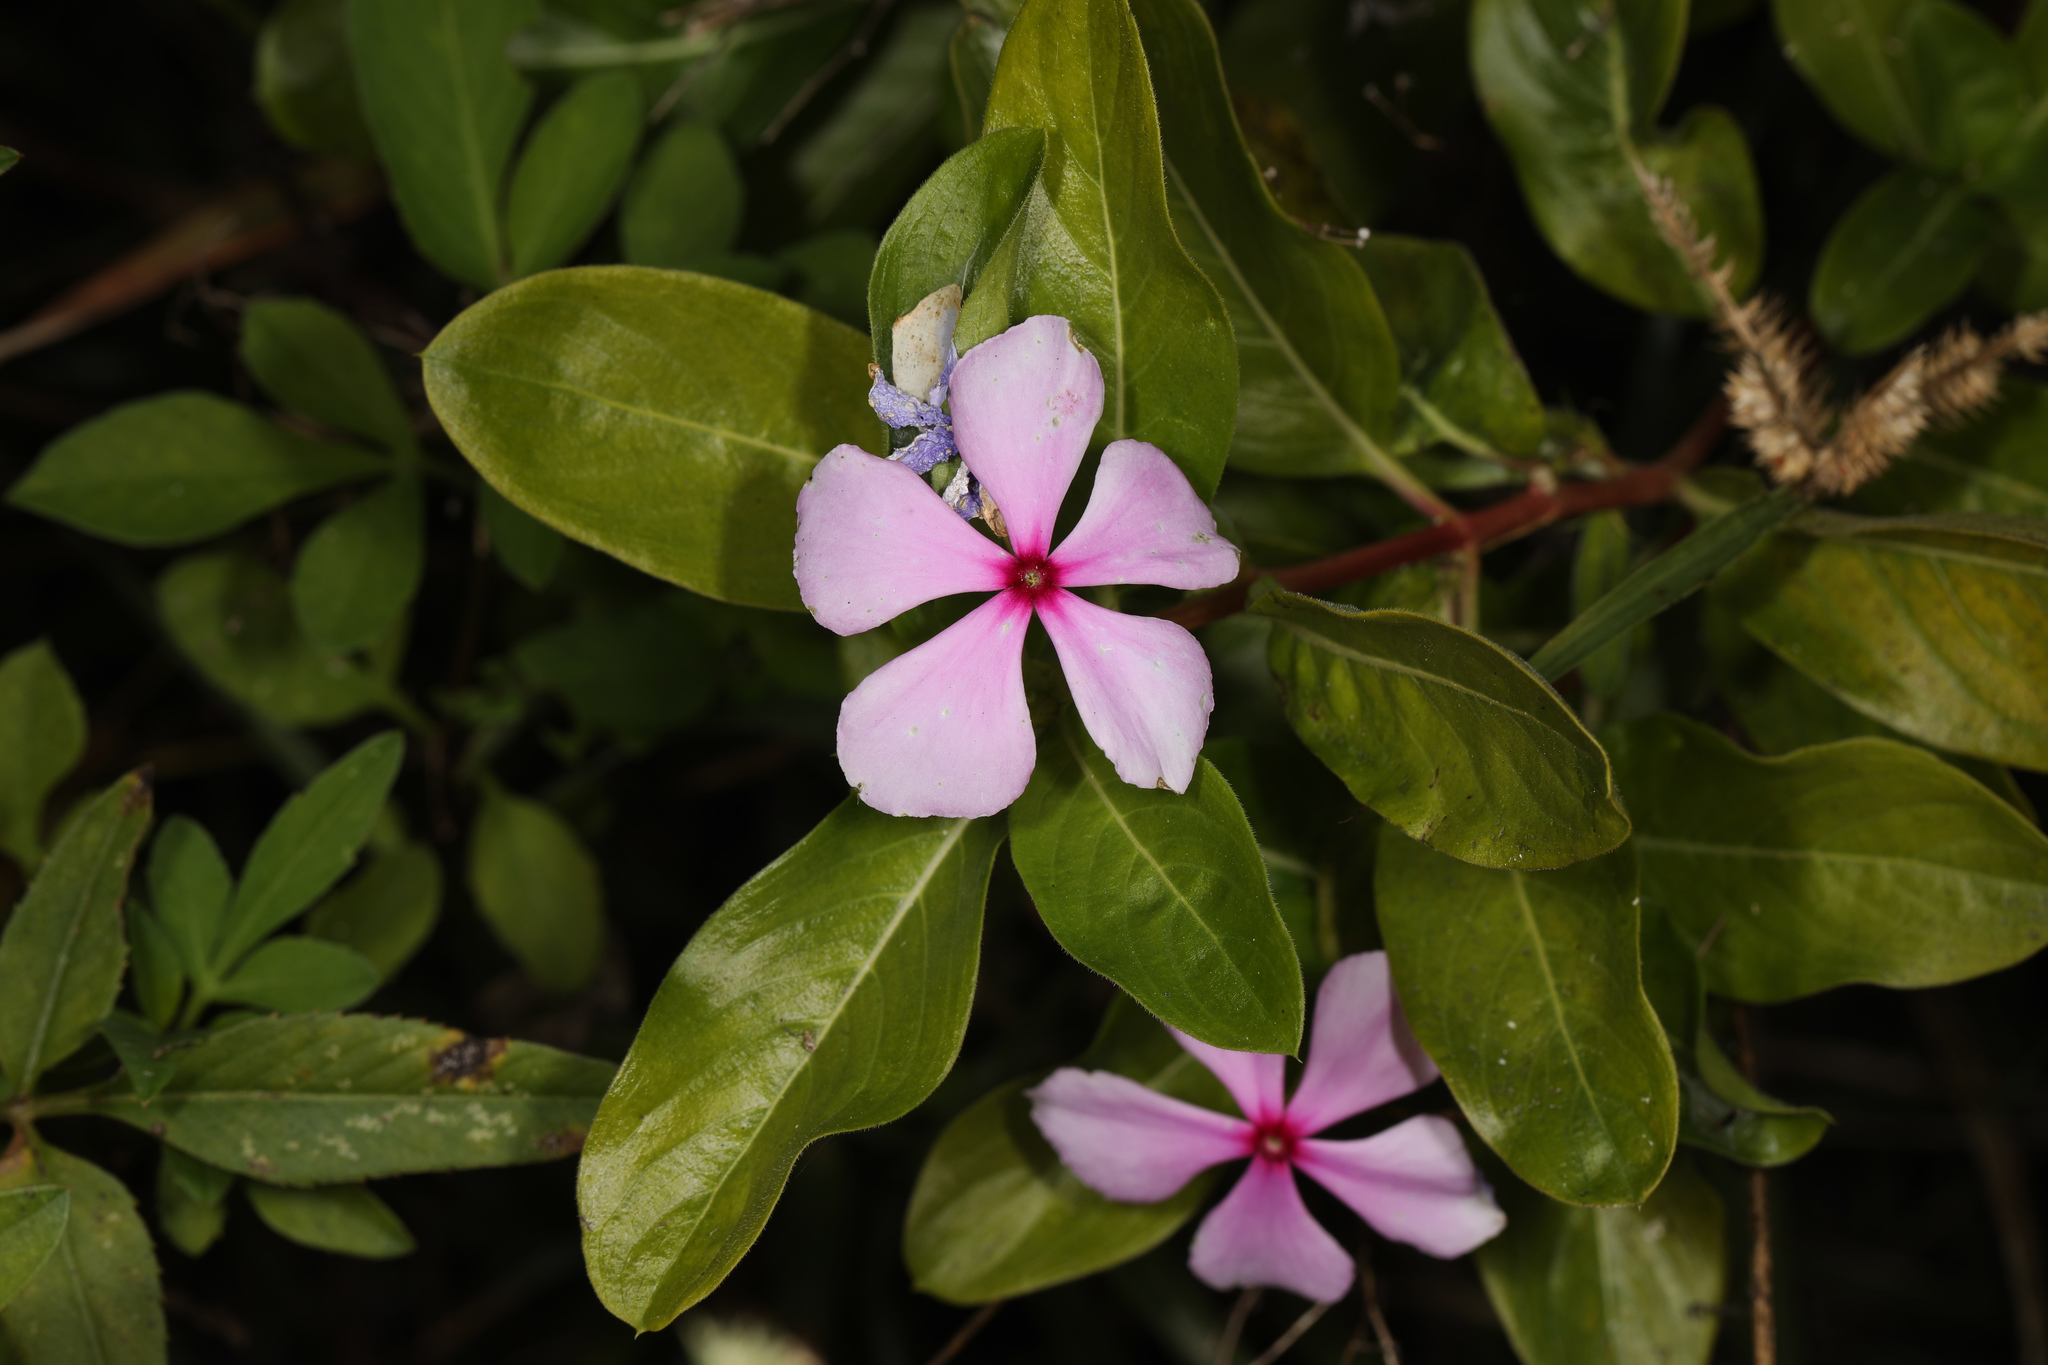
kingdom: Plantae
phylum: Tracheophyta
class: Magnoliopsida
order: Gentianales
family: Apocynaceae
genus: Catharanthus
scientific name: Catharanthus roseus
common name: Madagascar periwinkle
